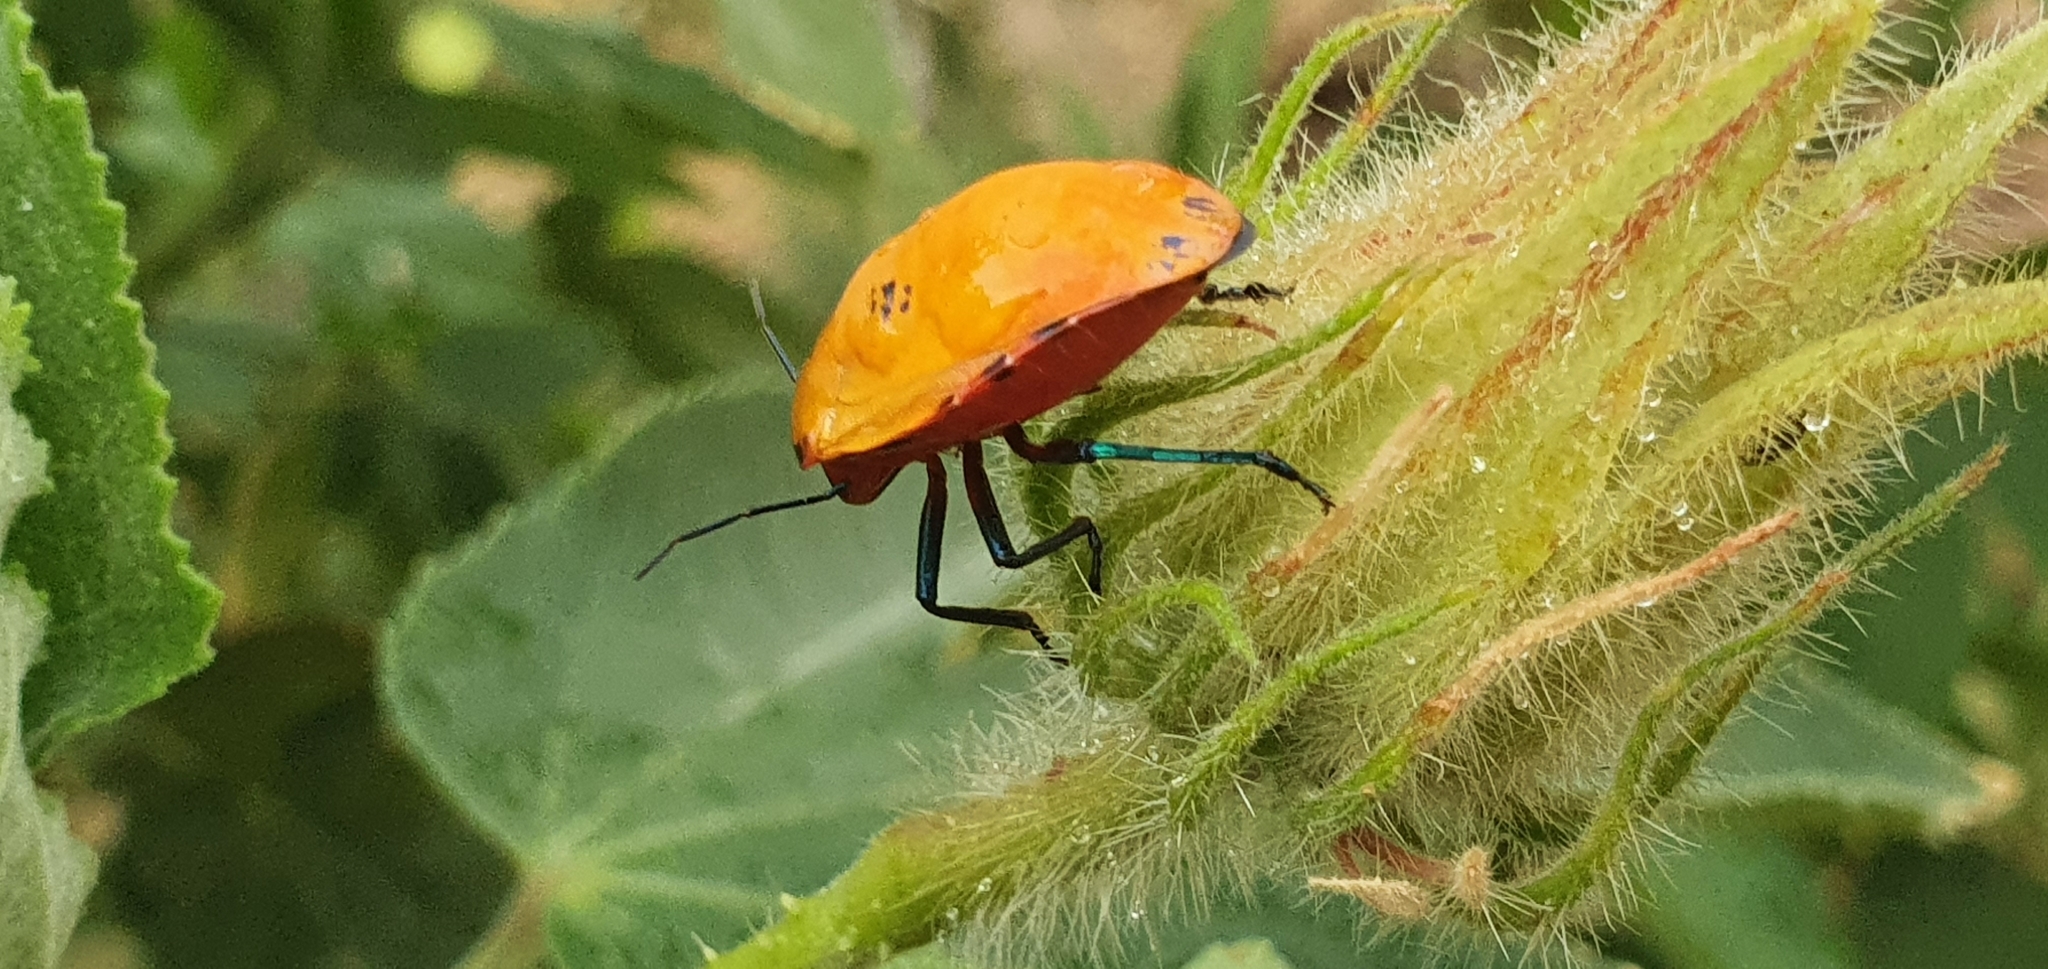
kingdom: Animalia
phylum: Arthropoda
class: Insecta
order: Hemiptera
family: Scutelleridae
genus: Tectocoris
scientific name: Tectocoris diophthalmus
